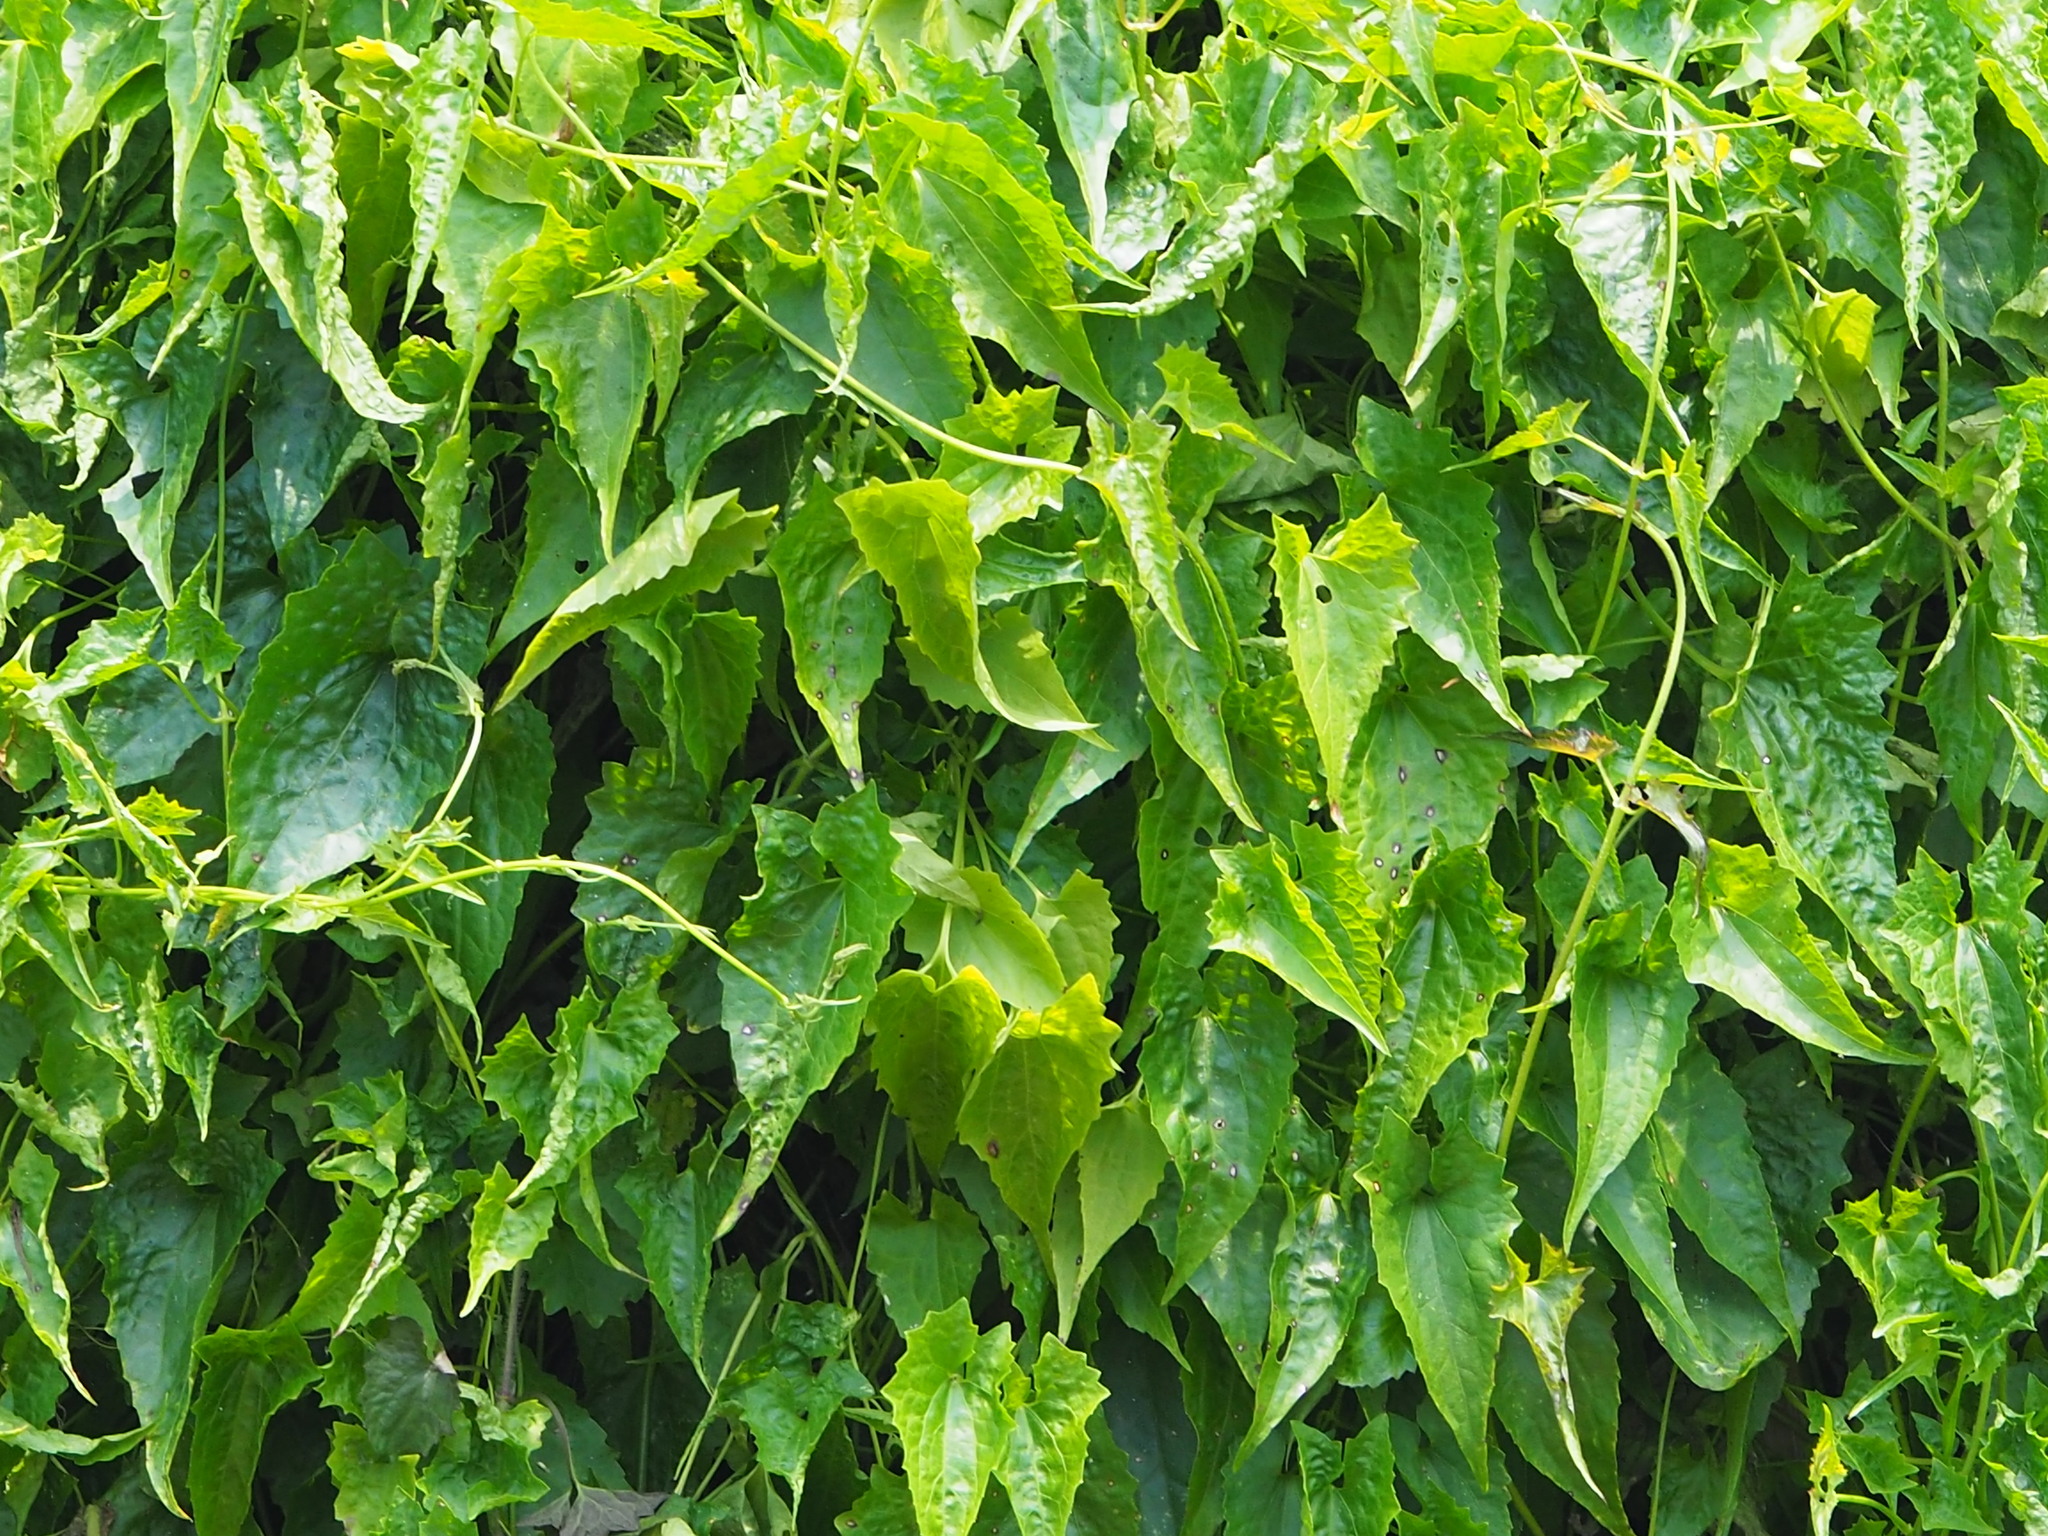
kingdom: Plantae
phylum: Tracheophyta
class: Magnoliopsida
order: Asterales
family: Asteraceae
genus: Mikania
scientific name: Mikania micrantha
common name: Mile-a-minute
